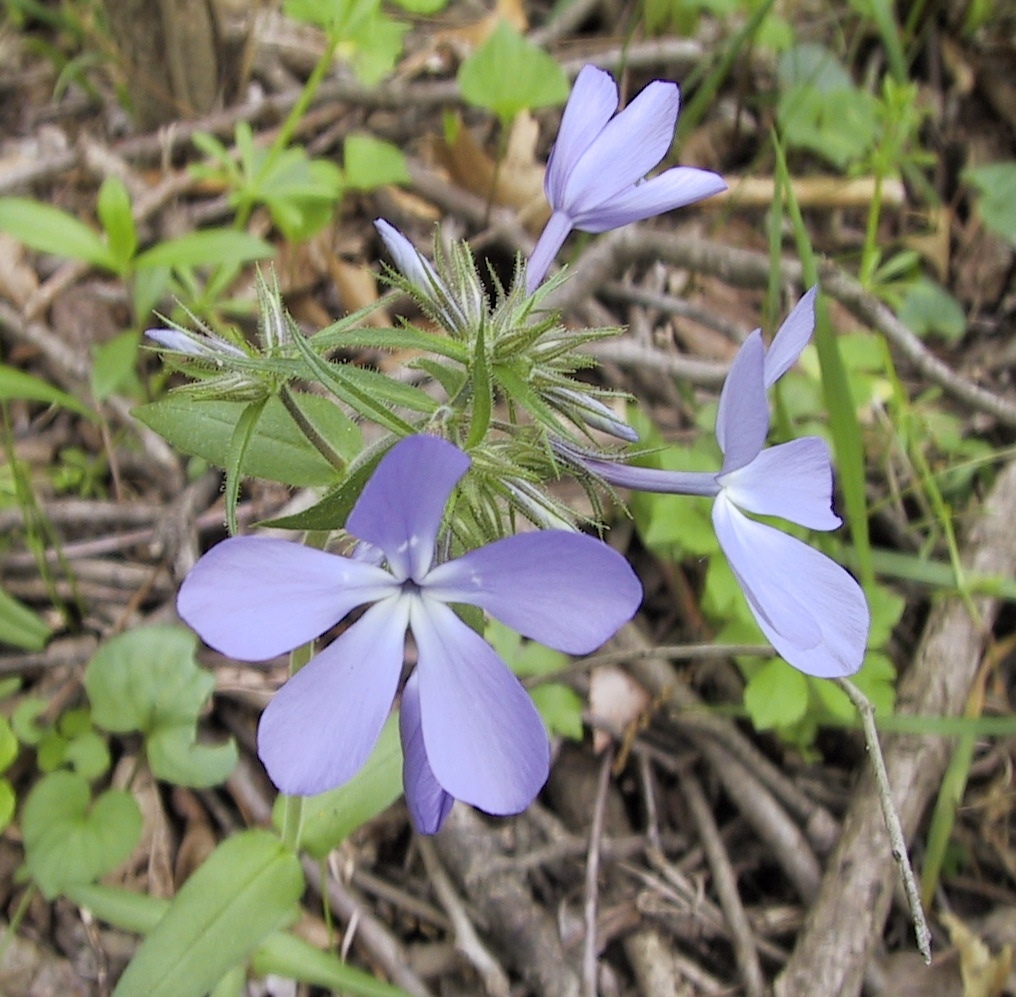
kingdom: Plantae
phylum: Tracheophyta
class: Magnoliopsida
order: Ericales
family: Polemoniaceae
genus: Phlox
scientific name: Phlox divaricata
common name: Blue phlox
